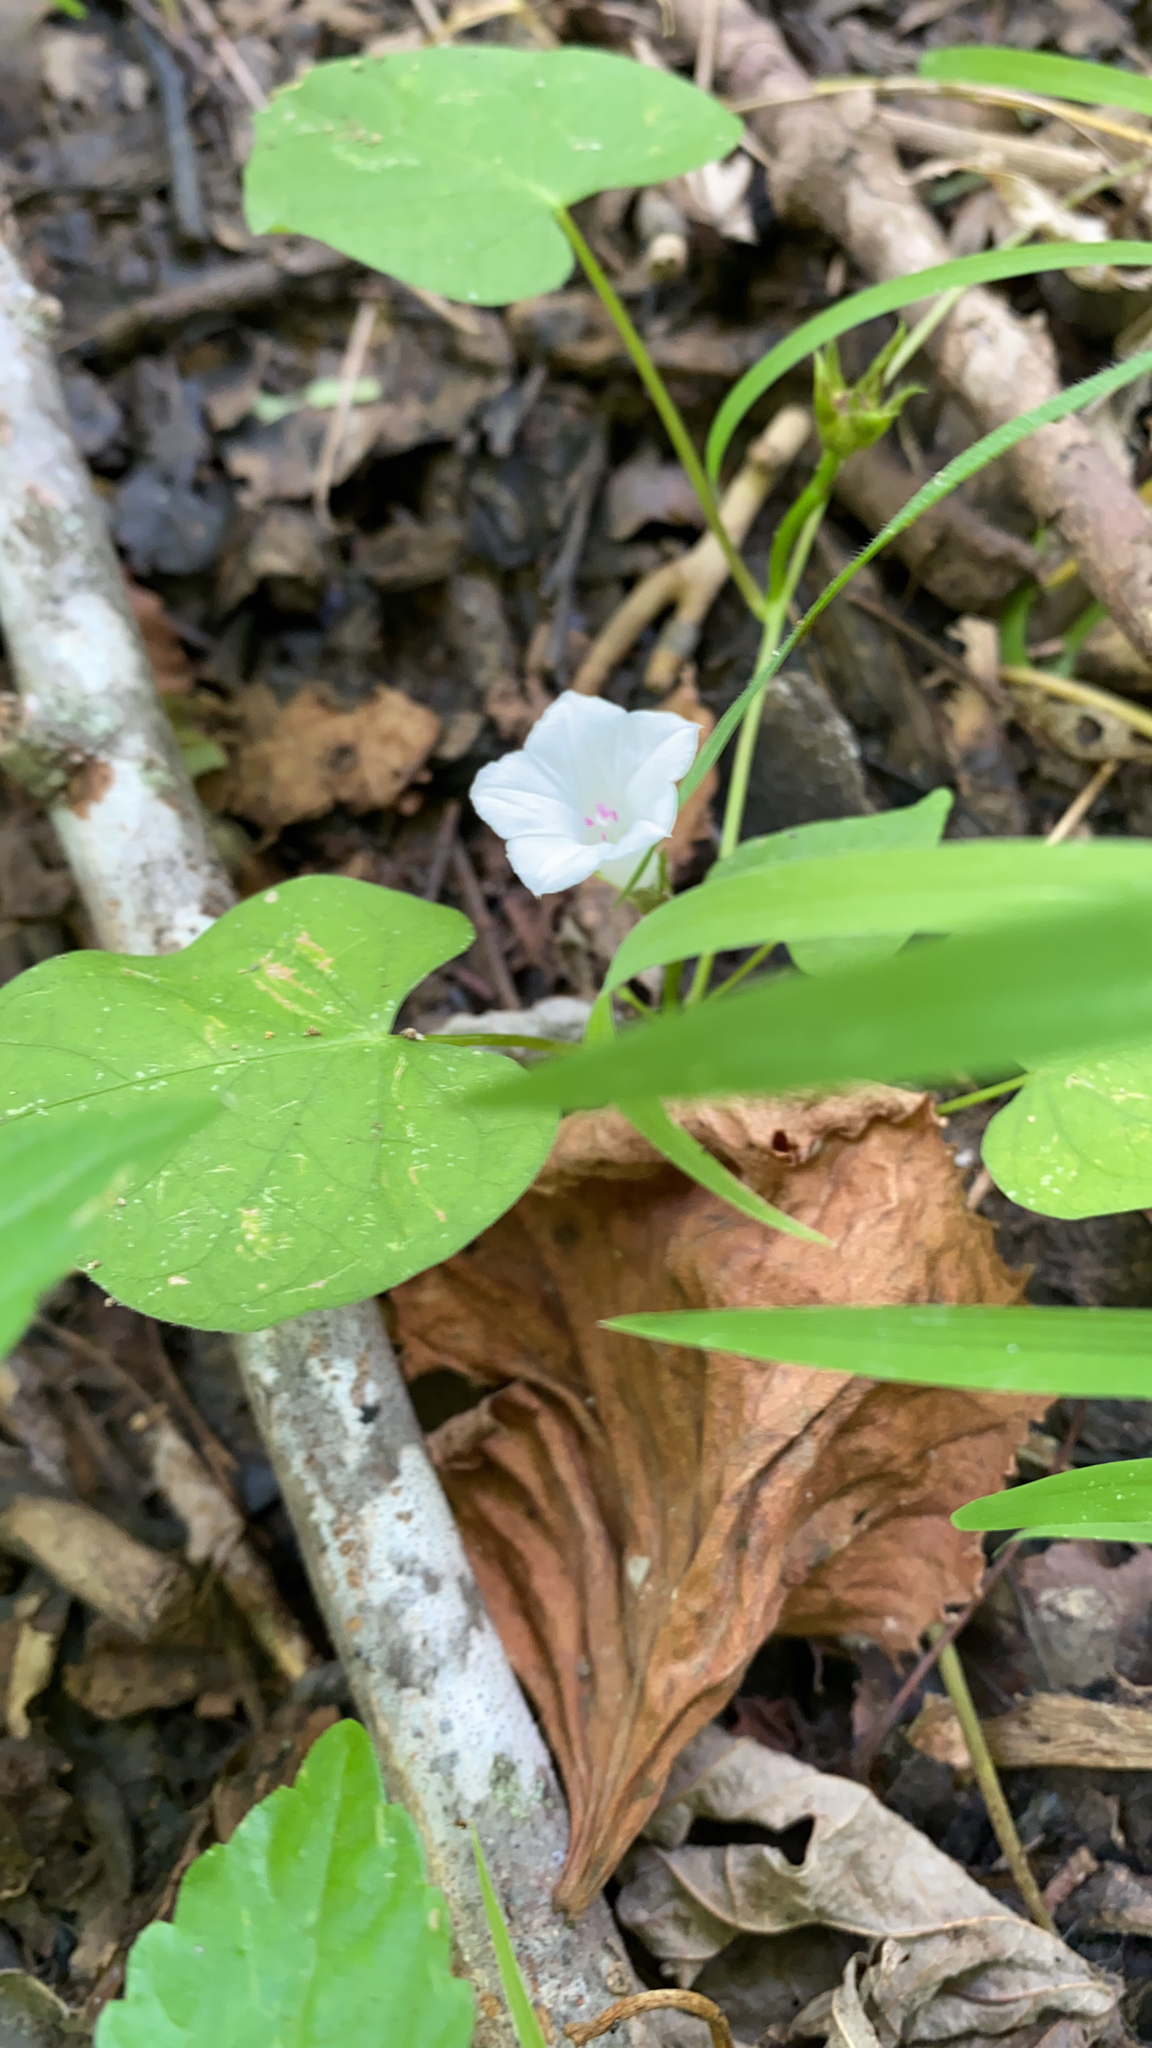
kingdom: Plantae
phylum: Tracheophyta
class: Magnoliopsida
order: Solanales
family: Convolvulaceae
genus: Ipomoea
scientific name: Ipomoea lacunosa
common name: White morning-glory
